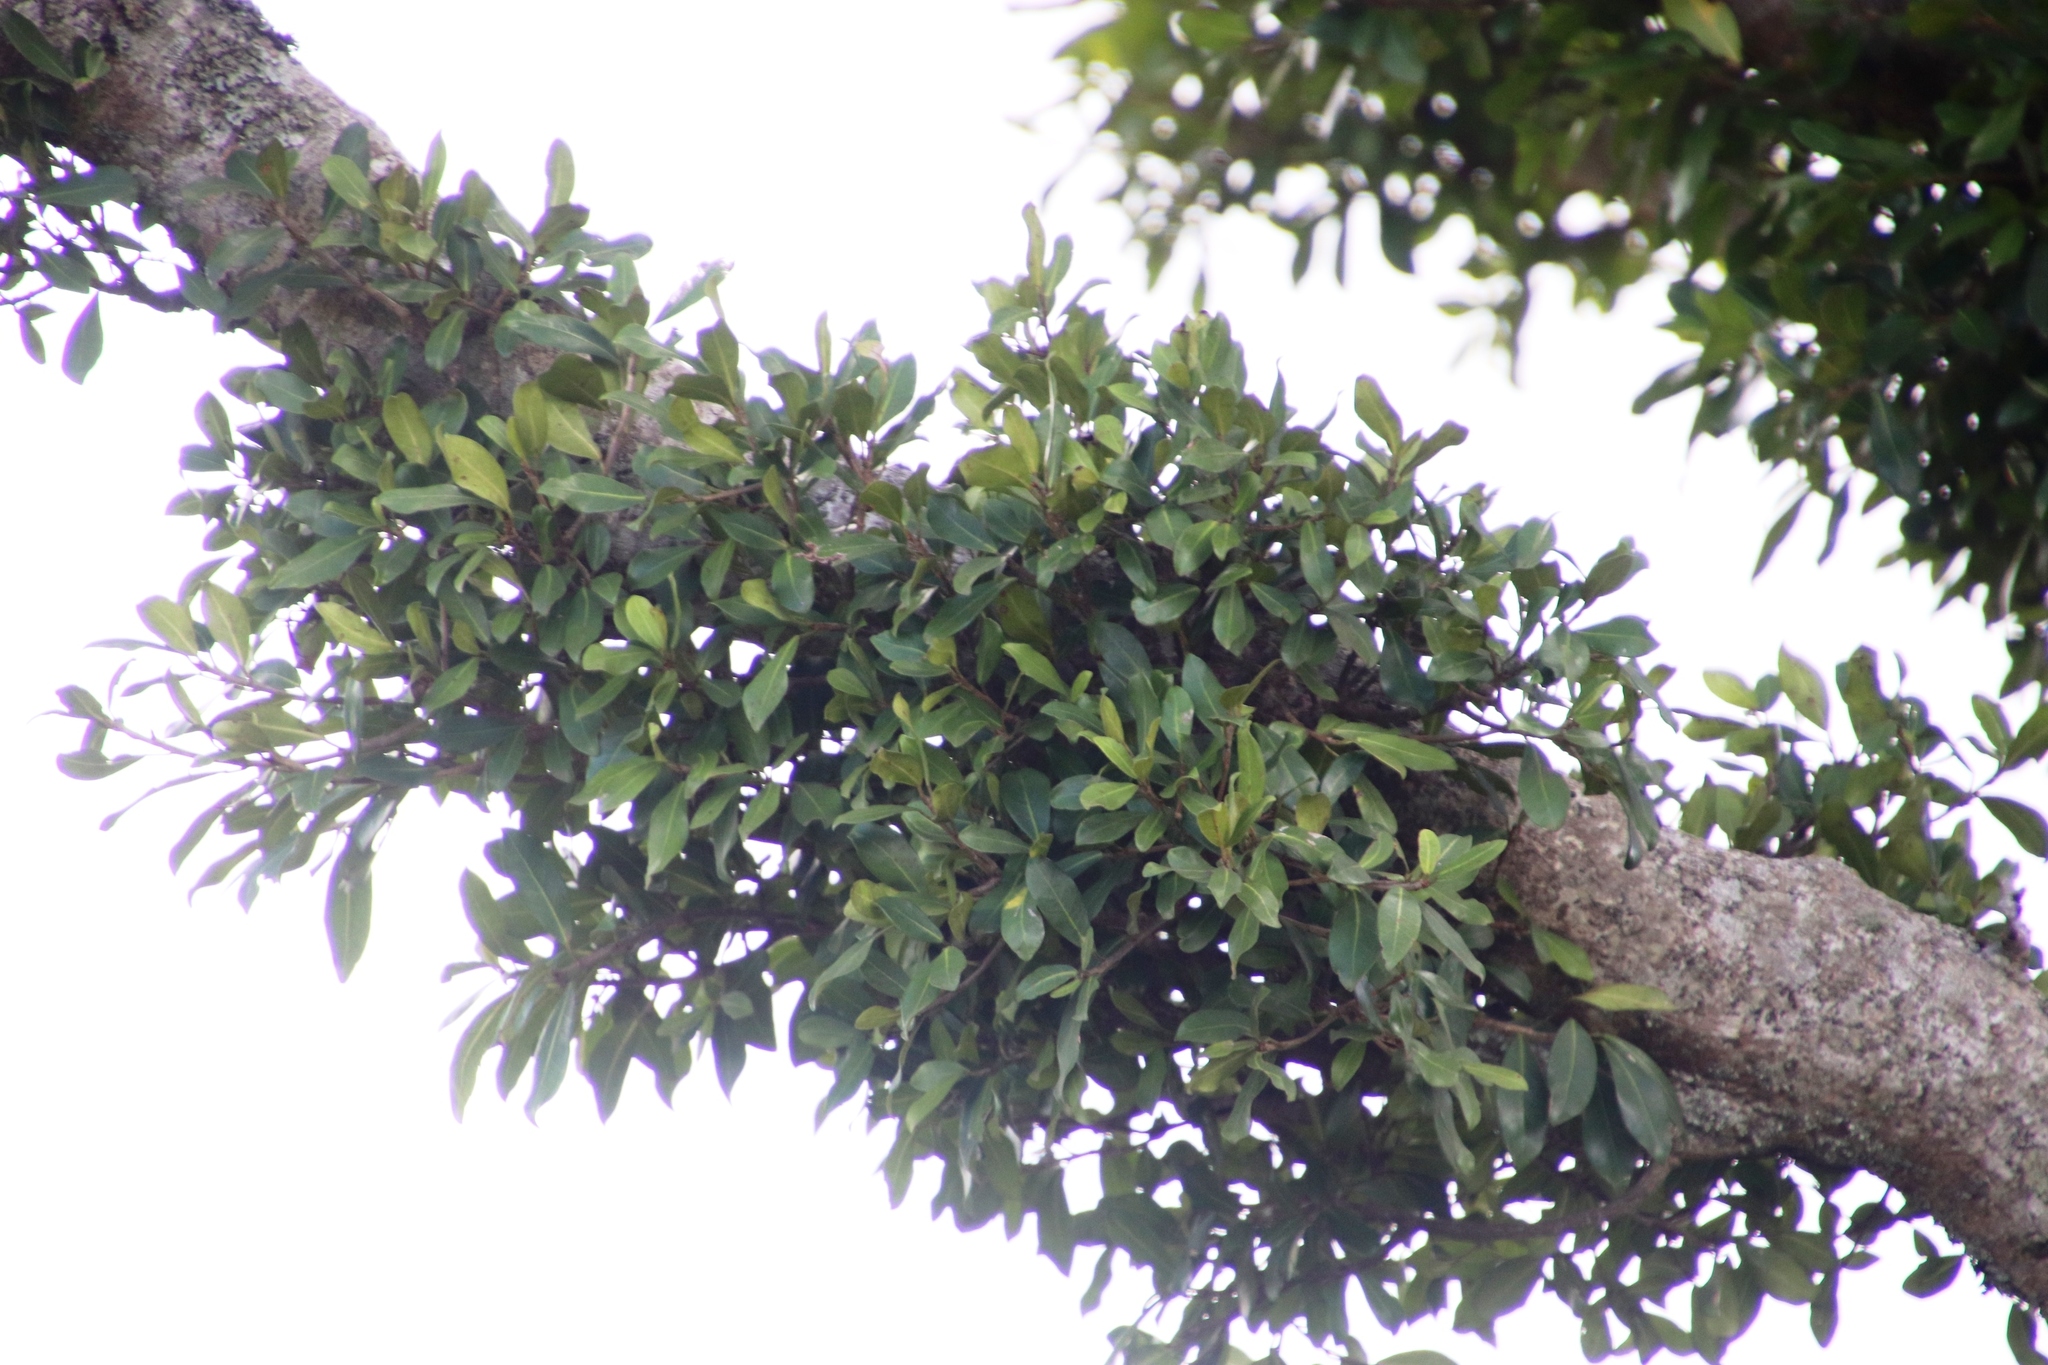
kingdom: Plantae
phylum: Tracheophyta
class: Magnoliopsida
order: Rosales
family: Moraceae
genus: Ficus
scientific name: Ficus thonningii
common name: Fig
